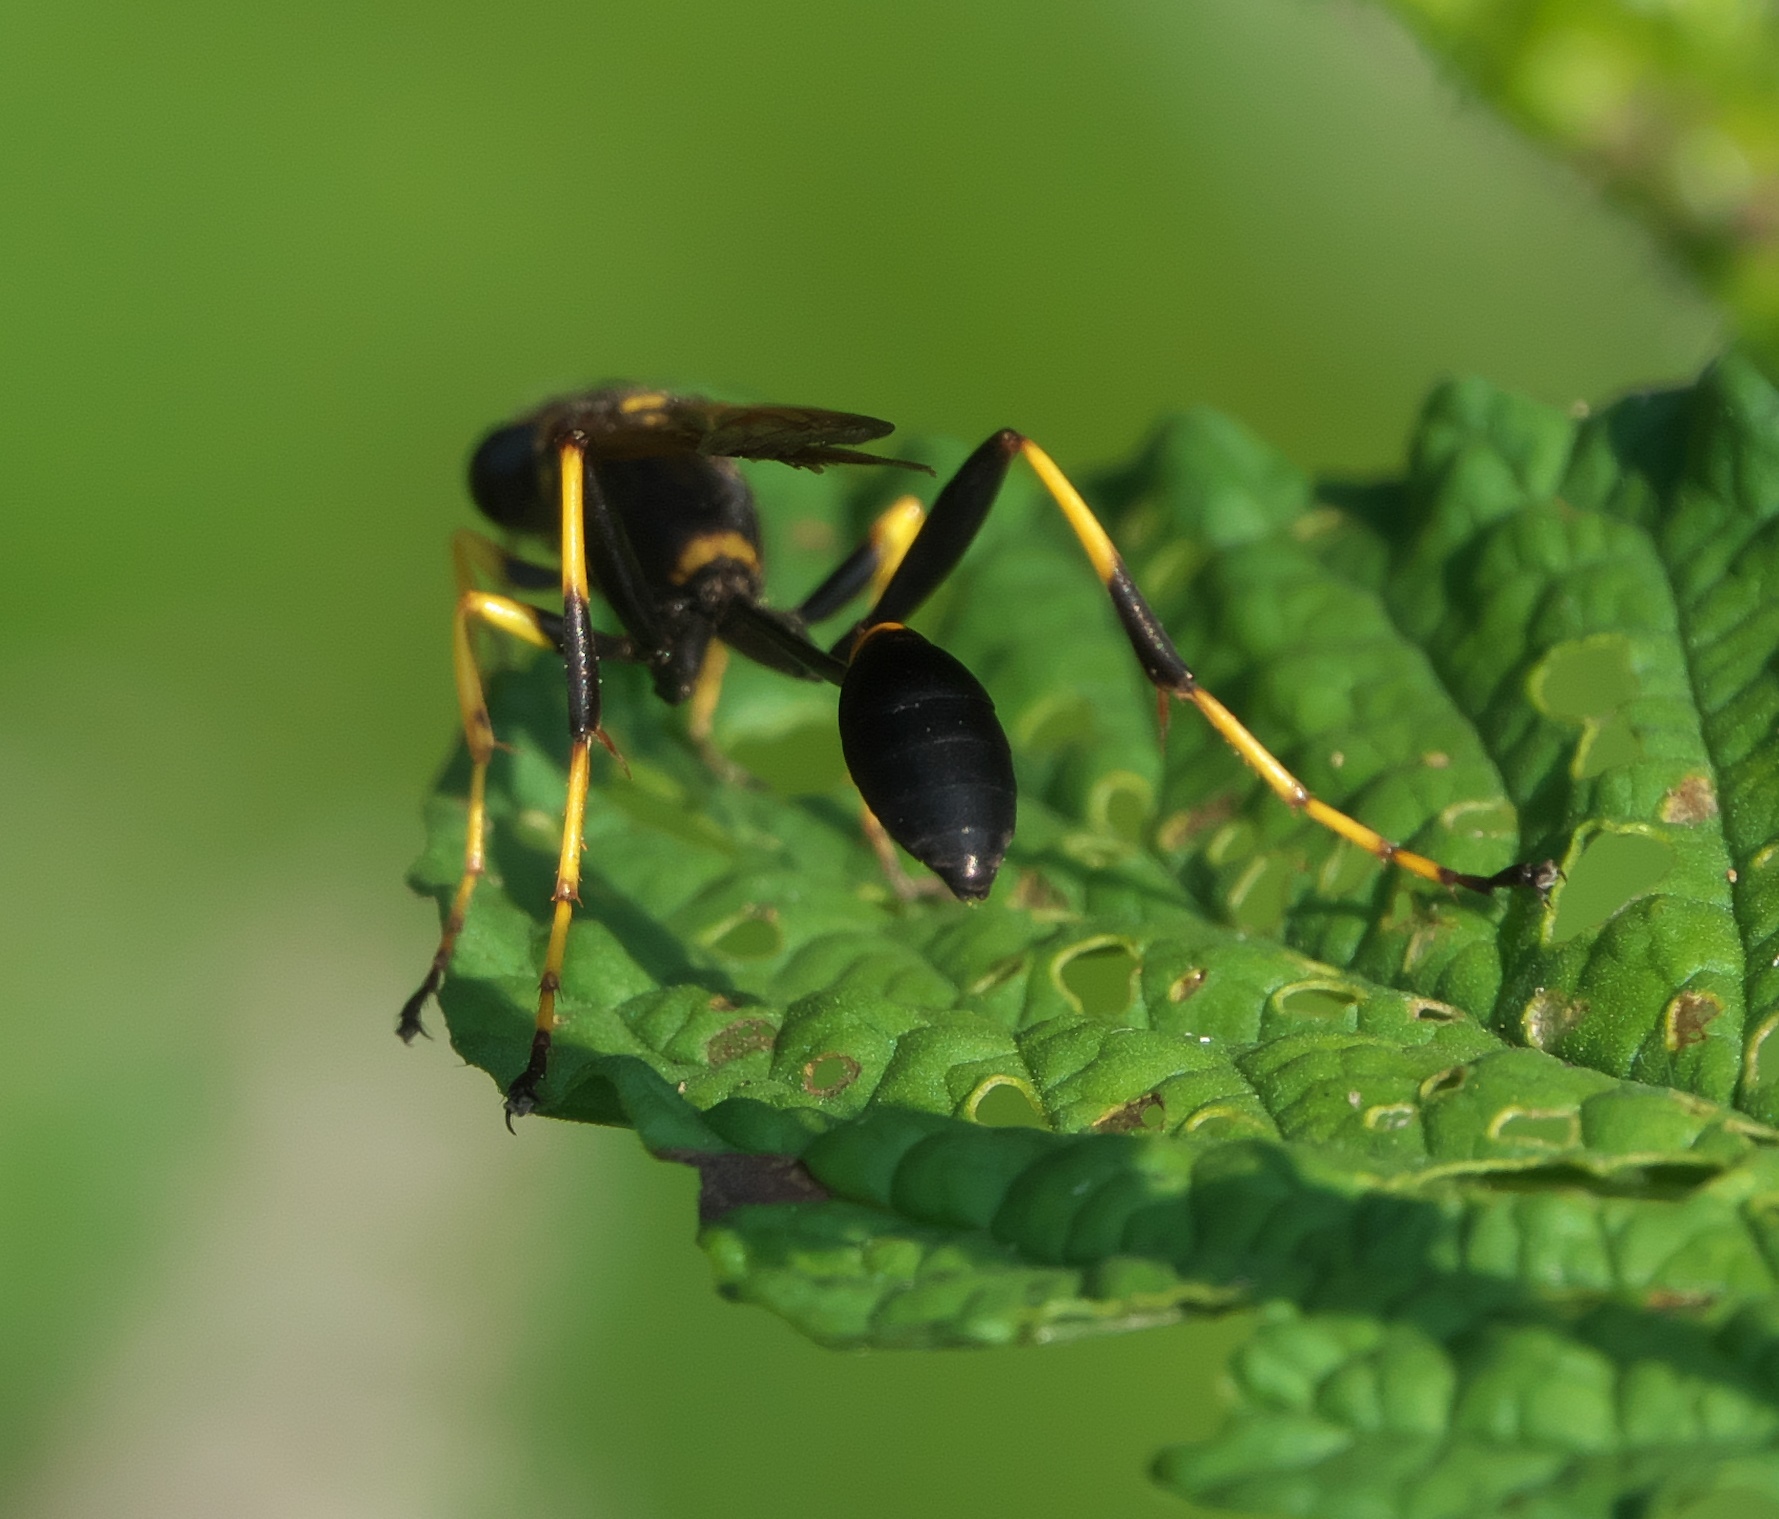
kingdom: Animalia
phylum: Arthropoda
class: Insecta
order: Hymenoptera
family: Sphecidae
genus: Sceliphron
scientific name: Sceliphron caementarium
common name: Mud dauber
